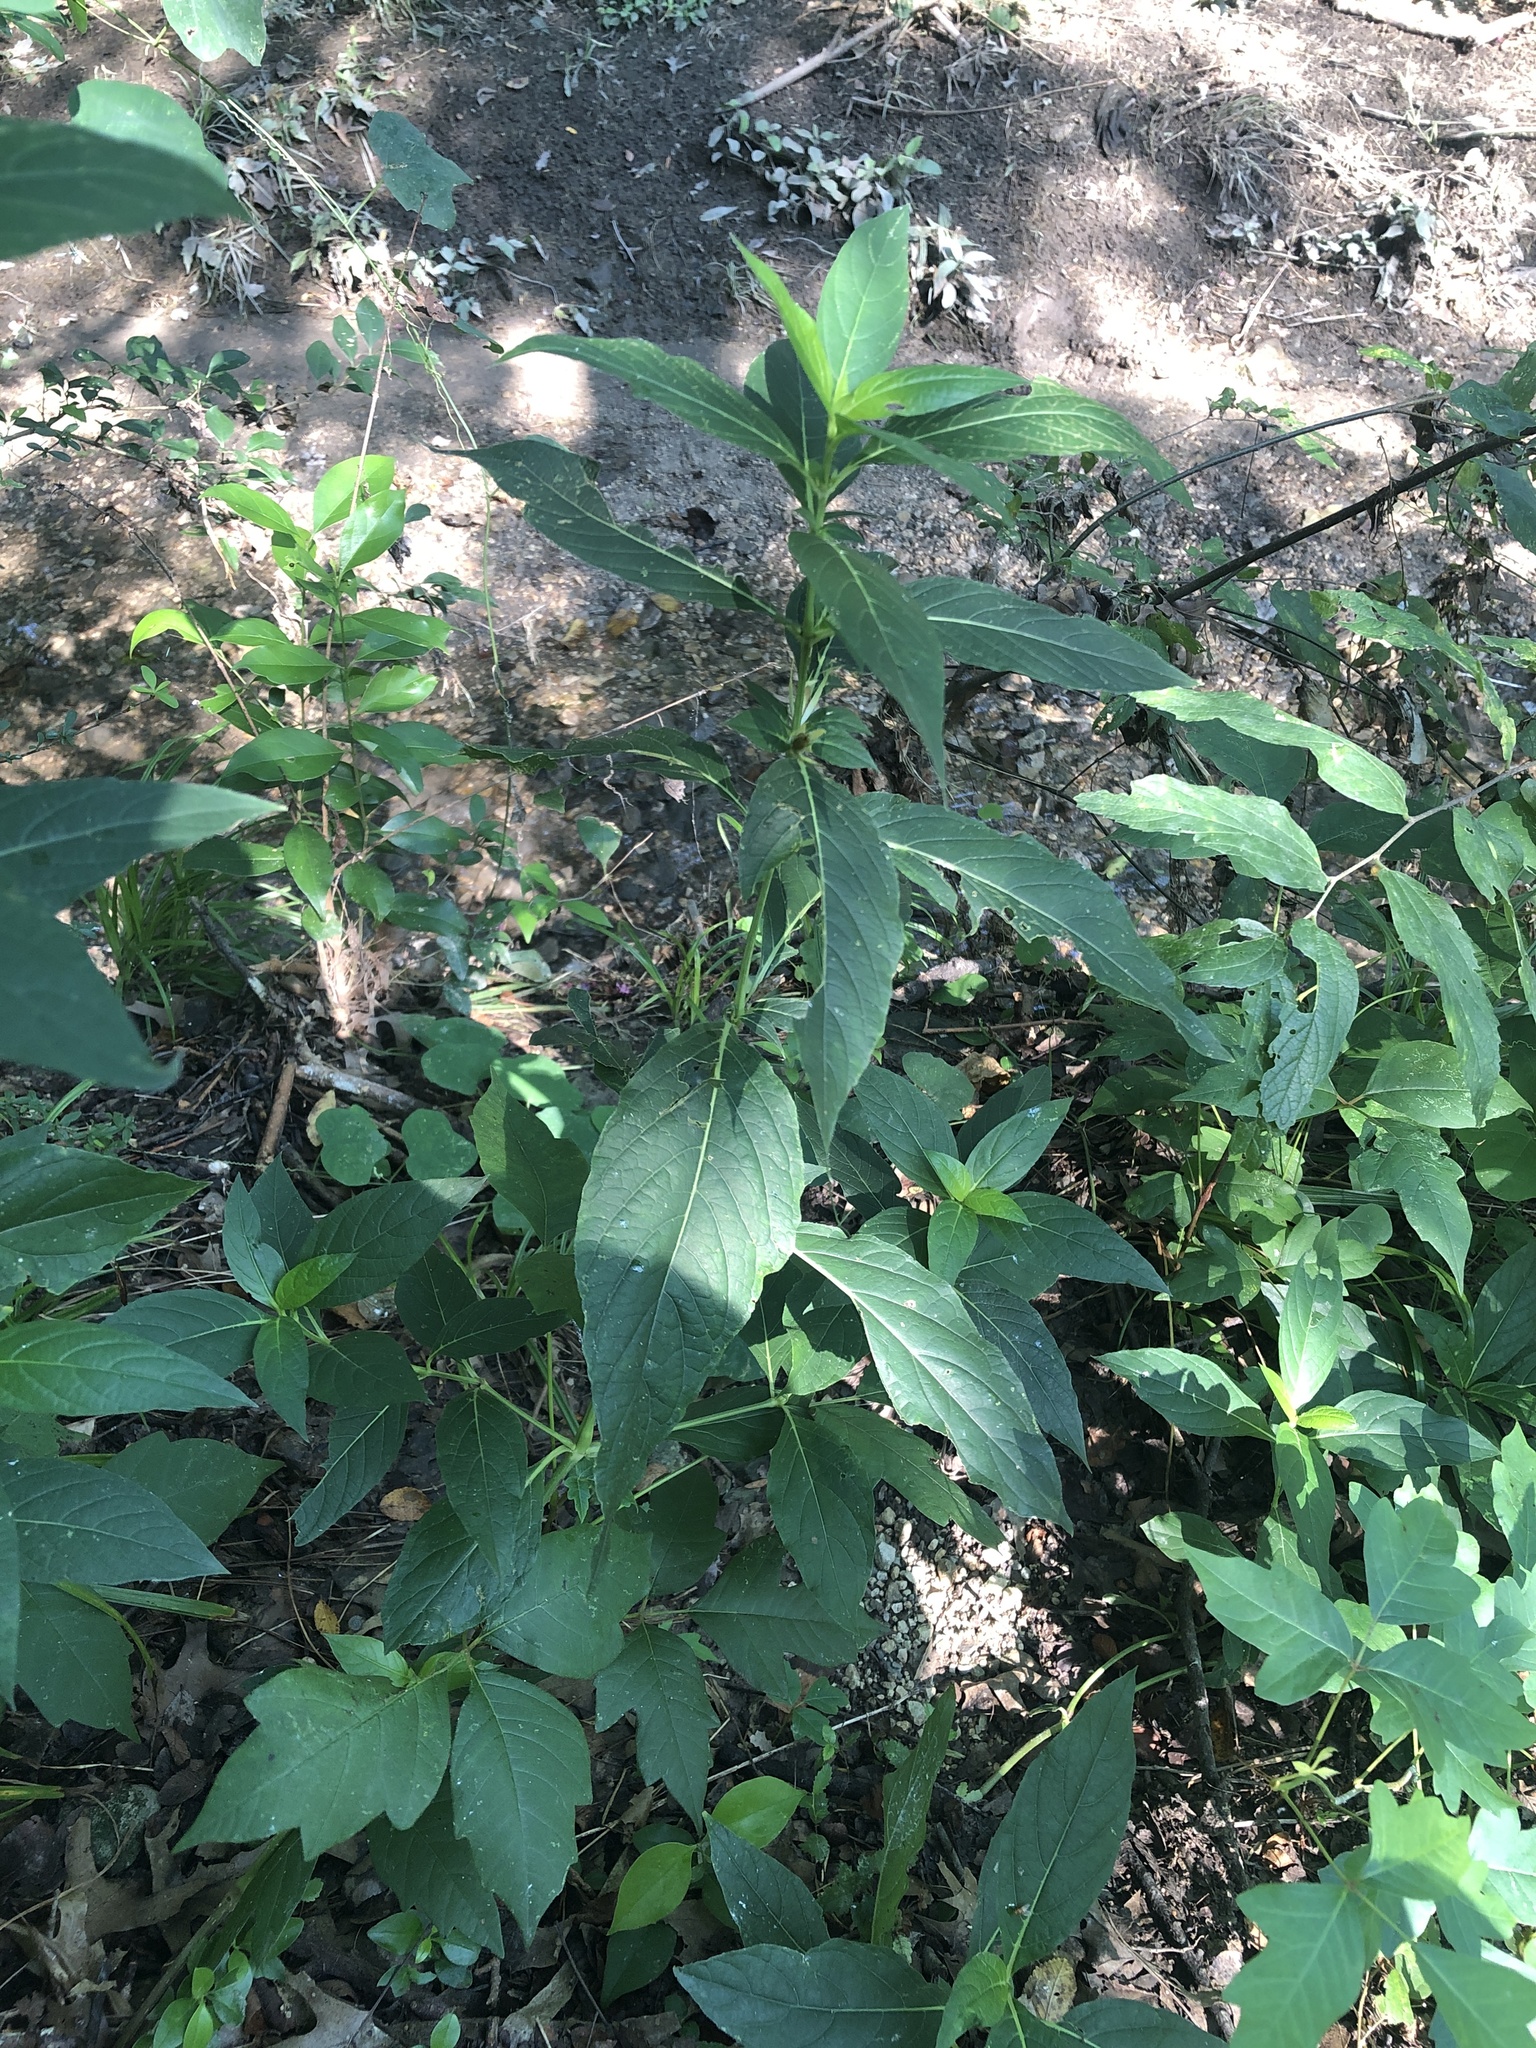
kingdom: Plantae
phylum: Tracheophyta
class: Magnoliopsida
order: Lamiales
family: Acanthaceae
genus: Ruellia
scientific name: Ruellia strepens
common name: Limestone wild petunia
